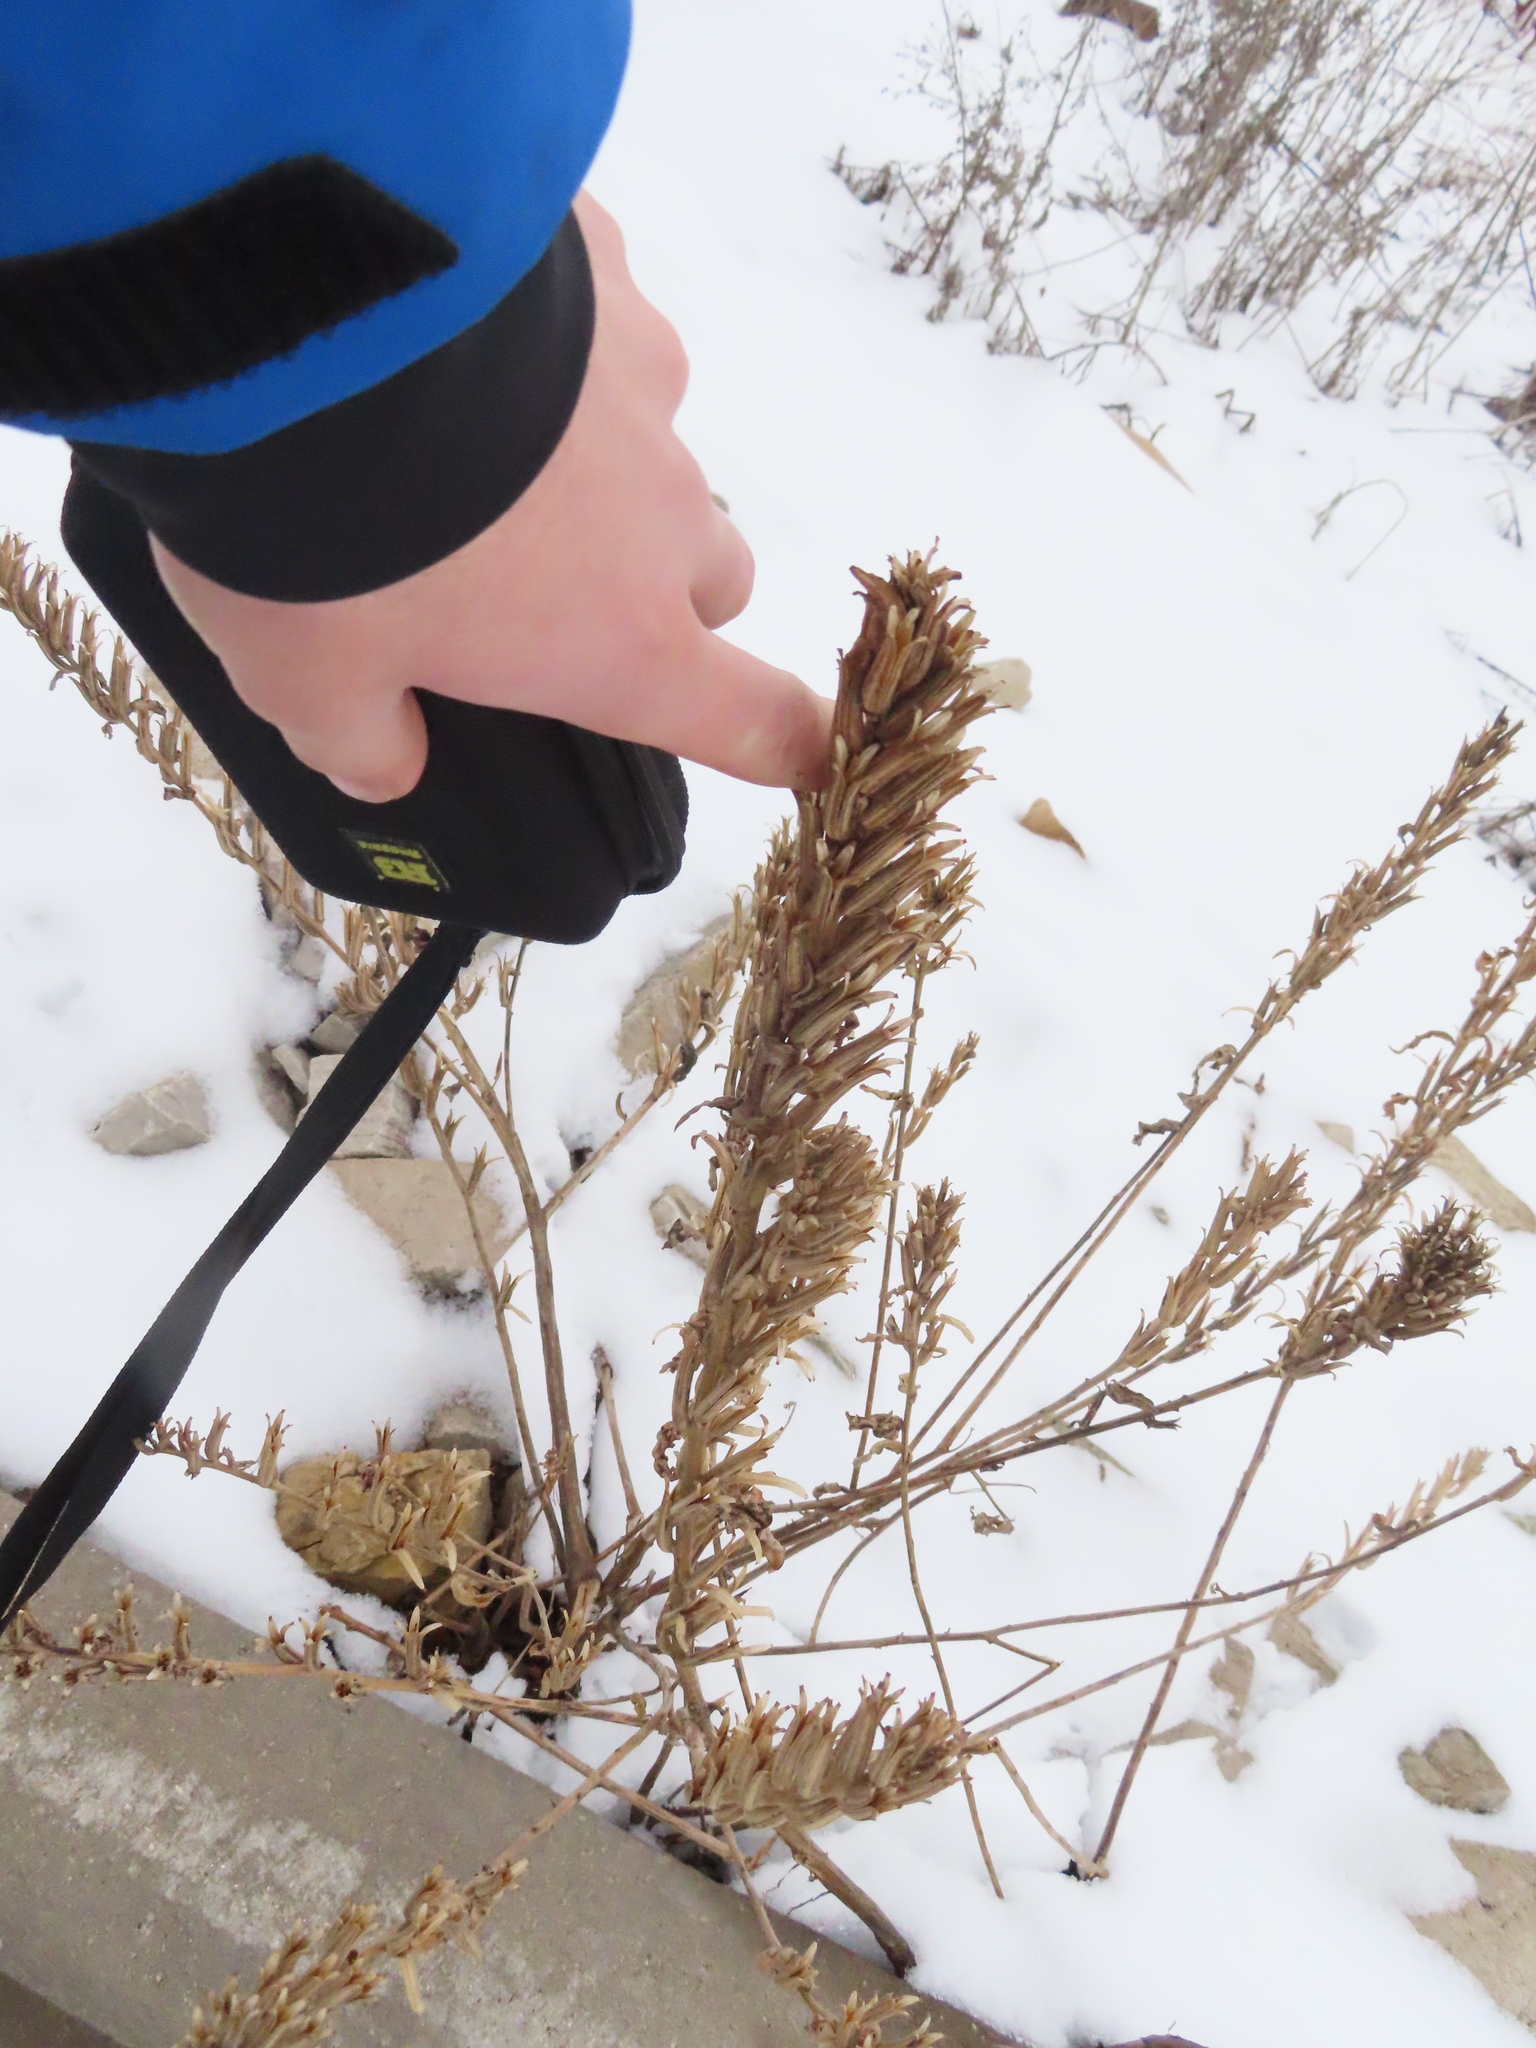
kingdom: Plantae
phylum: Tracheophyta
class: Magnoliopsida
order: Myrtales
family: Onagraceae
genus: Oenothera
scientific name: Oenothera biennis
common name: Common evening-primrose
